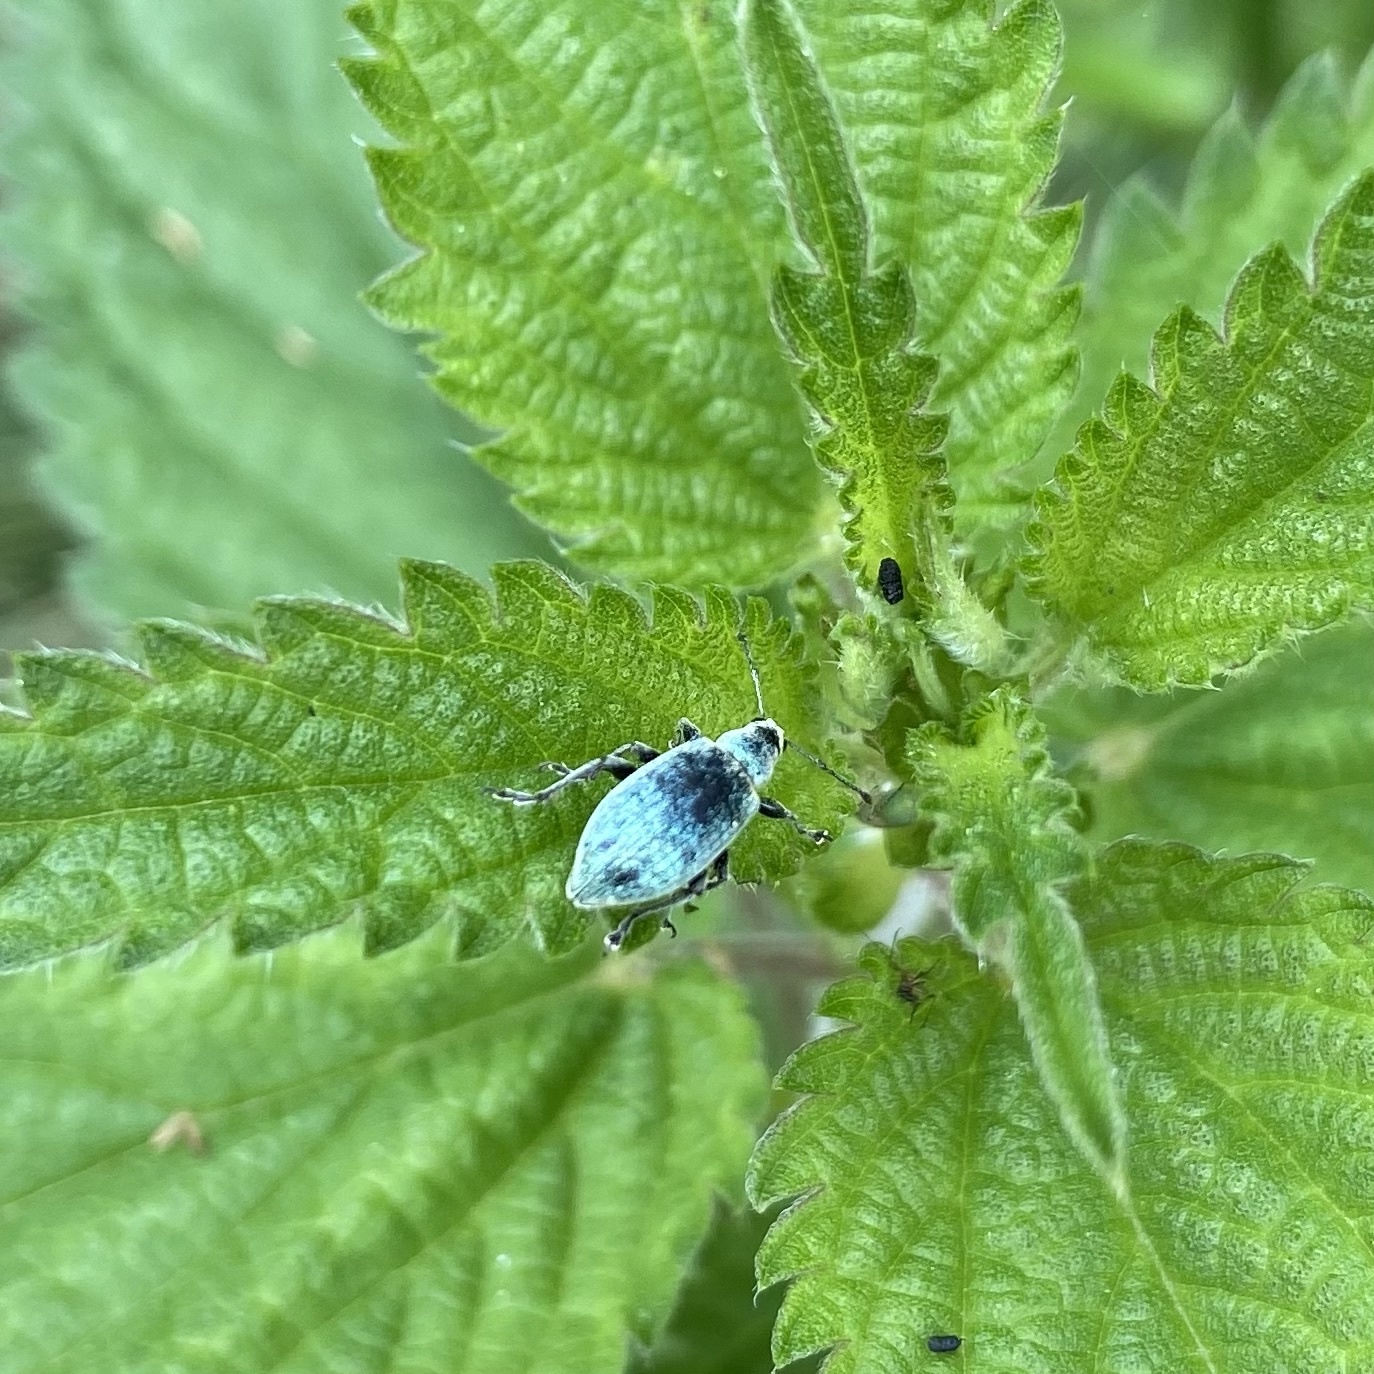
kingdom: Animalia
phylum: Arthropoda
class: Insecta
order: Coleoptera
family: Curculionidae
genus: Phyllobius
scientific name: Phyllobius pomaceus
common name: Green nettle weevil
